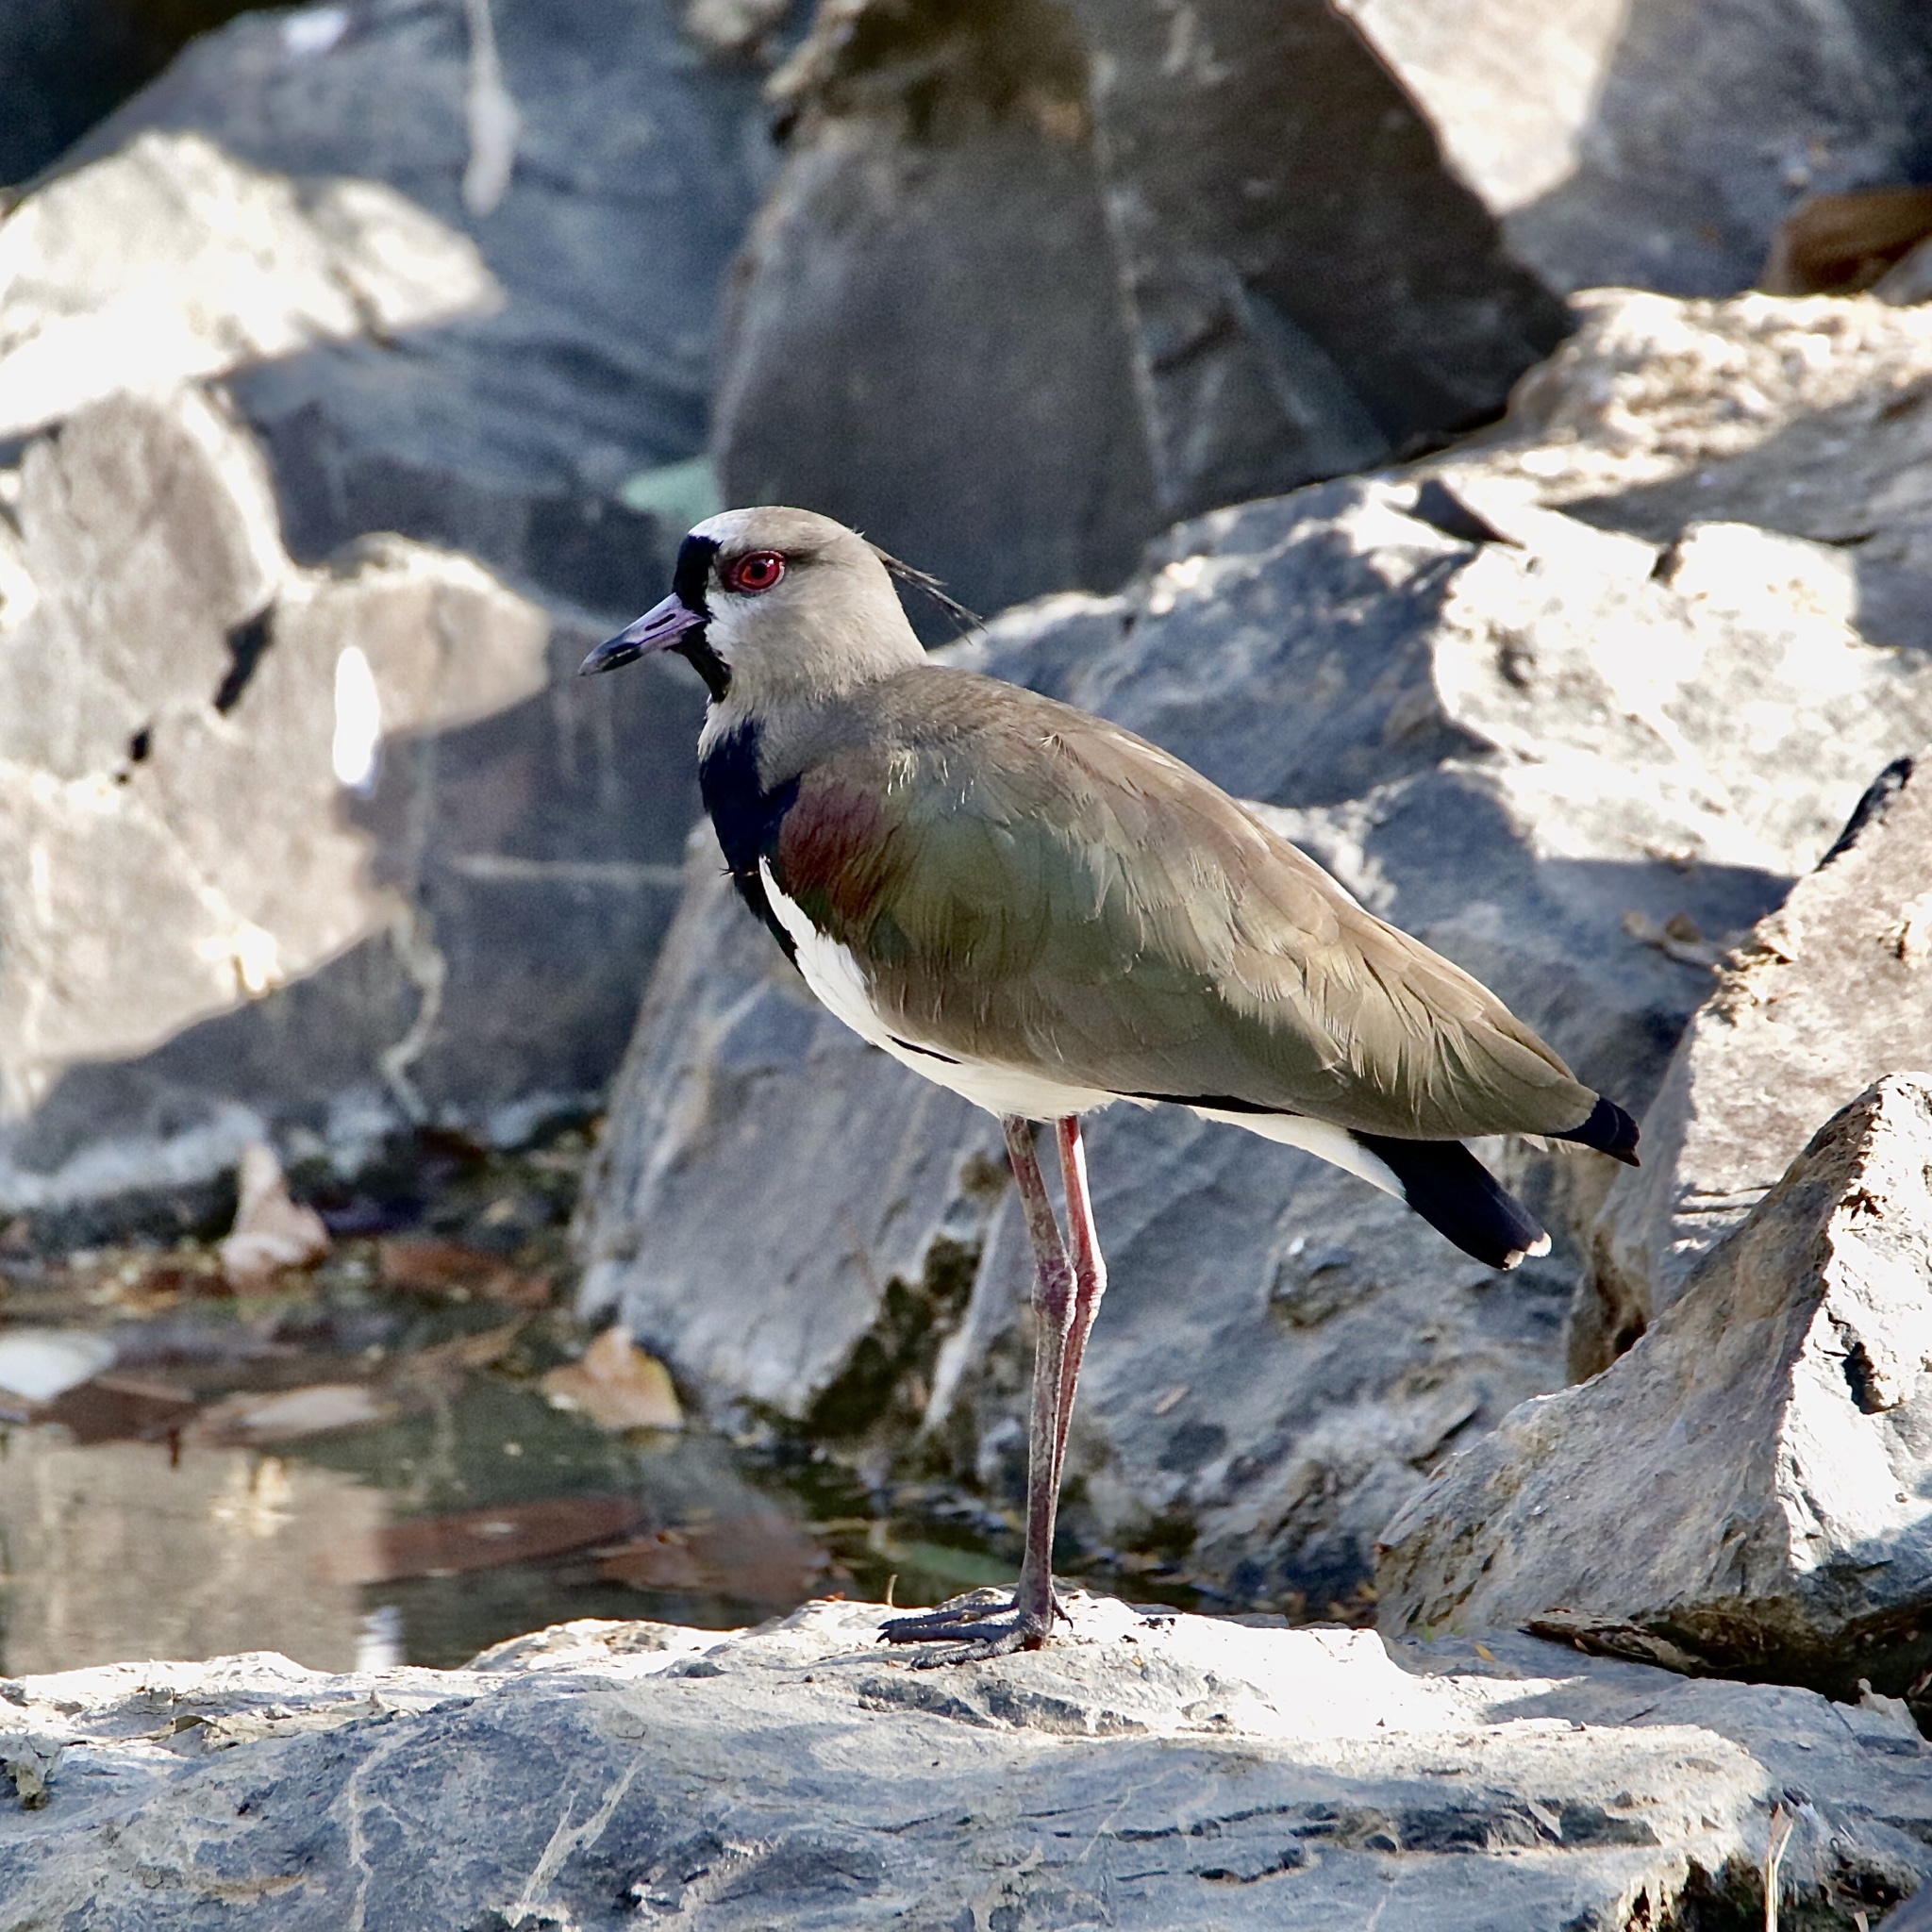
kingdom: Animalia
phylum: Chordata
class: Aves
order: Charadriiformes
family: Charadriidae
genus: Vanellus
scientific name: Vanellus chilensis
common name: Southern lapwing
